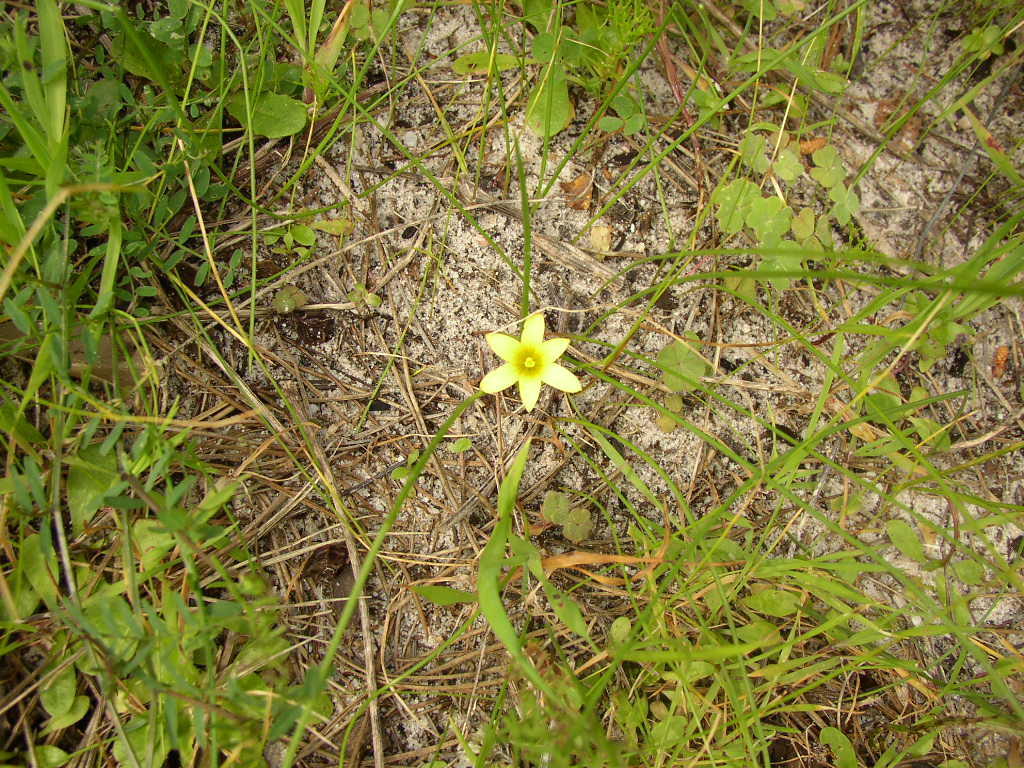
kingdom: Plantae
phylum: Tracheophyta
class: Liliopsida
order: Asparagales
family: Iridaceae
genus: Romulea
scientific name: Romulea flava
